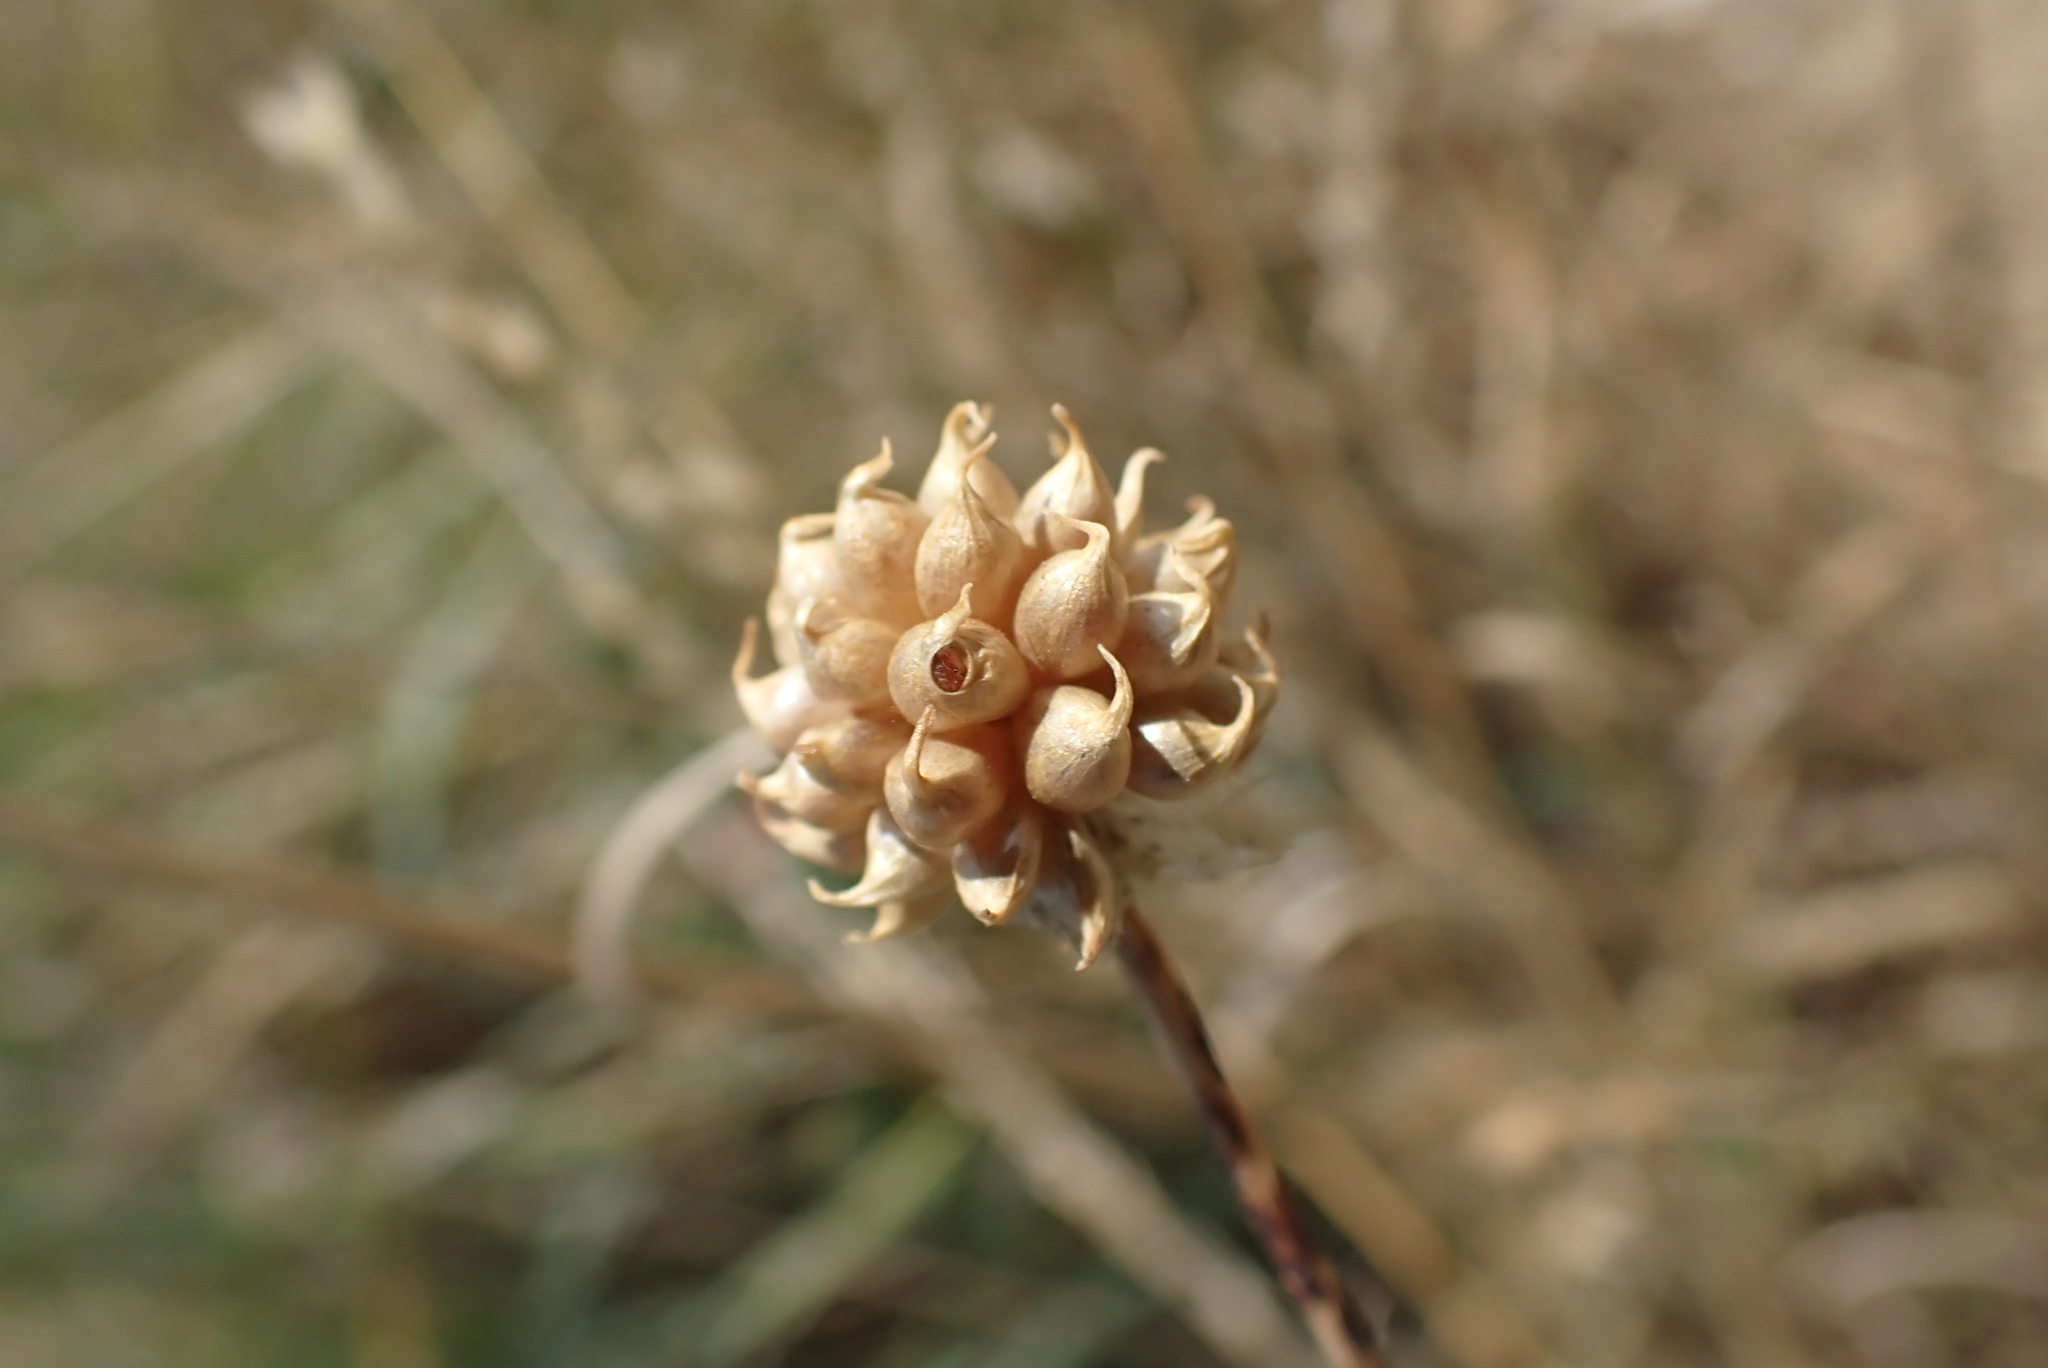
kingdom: Plantae
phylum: Tracheophyta
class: Liliopsida
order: Asparagales
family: Amaryllidaceae
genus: Allium
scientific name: Allium vineale
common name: Crow garlic
